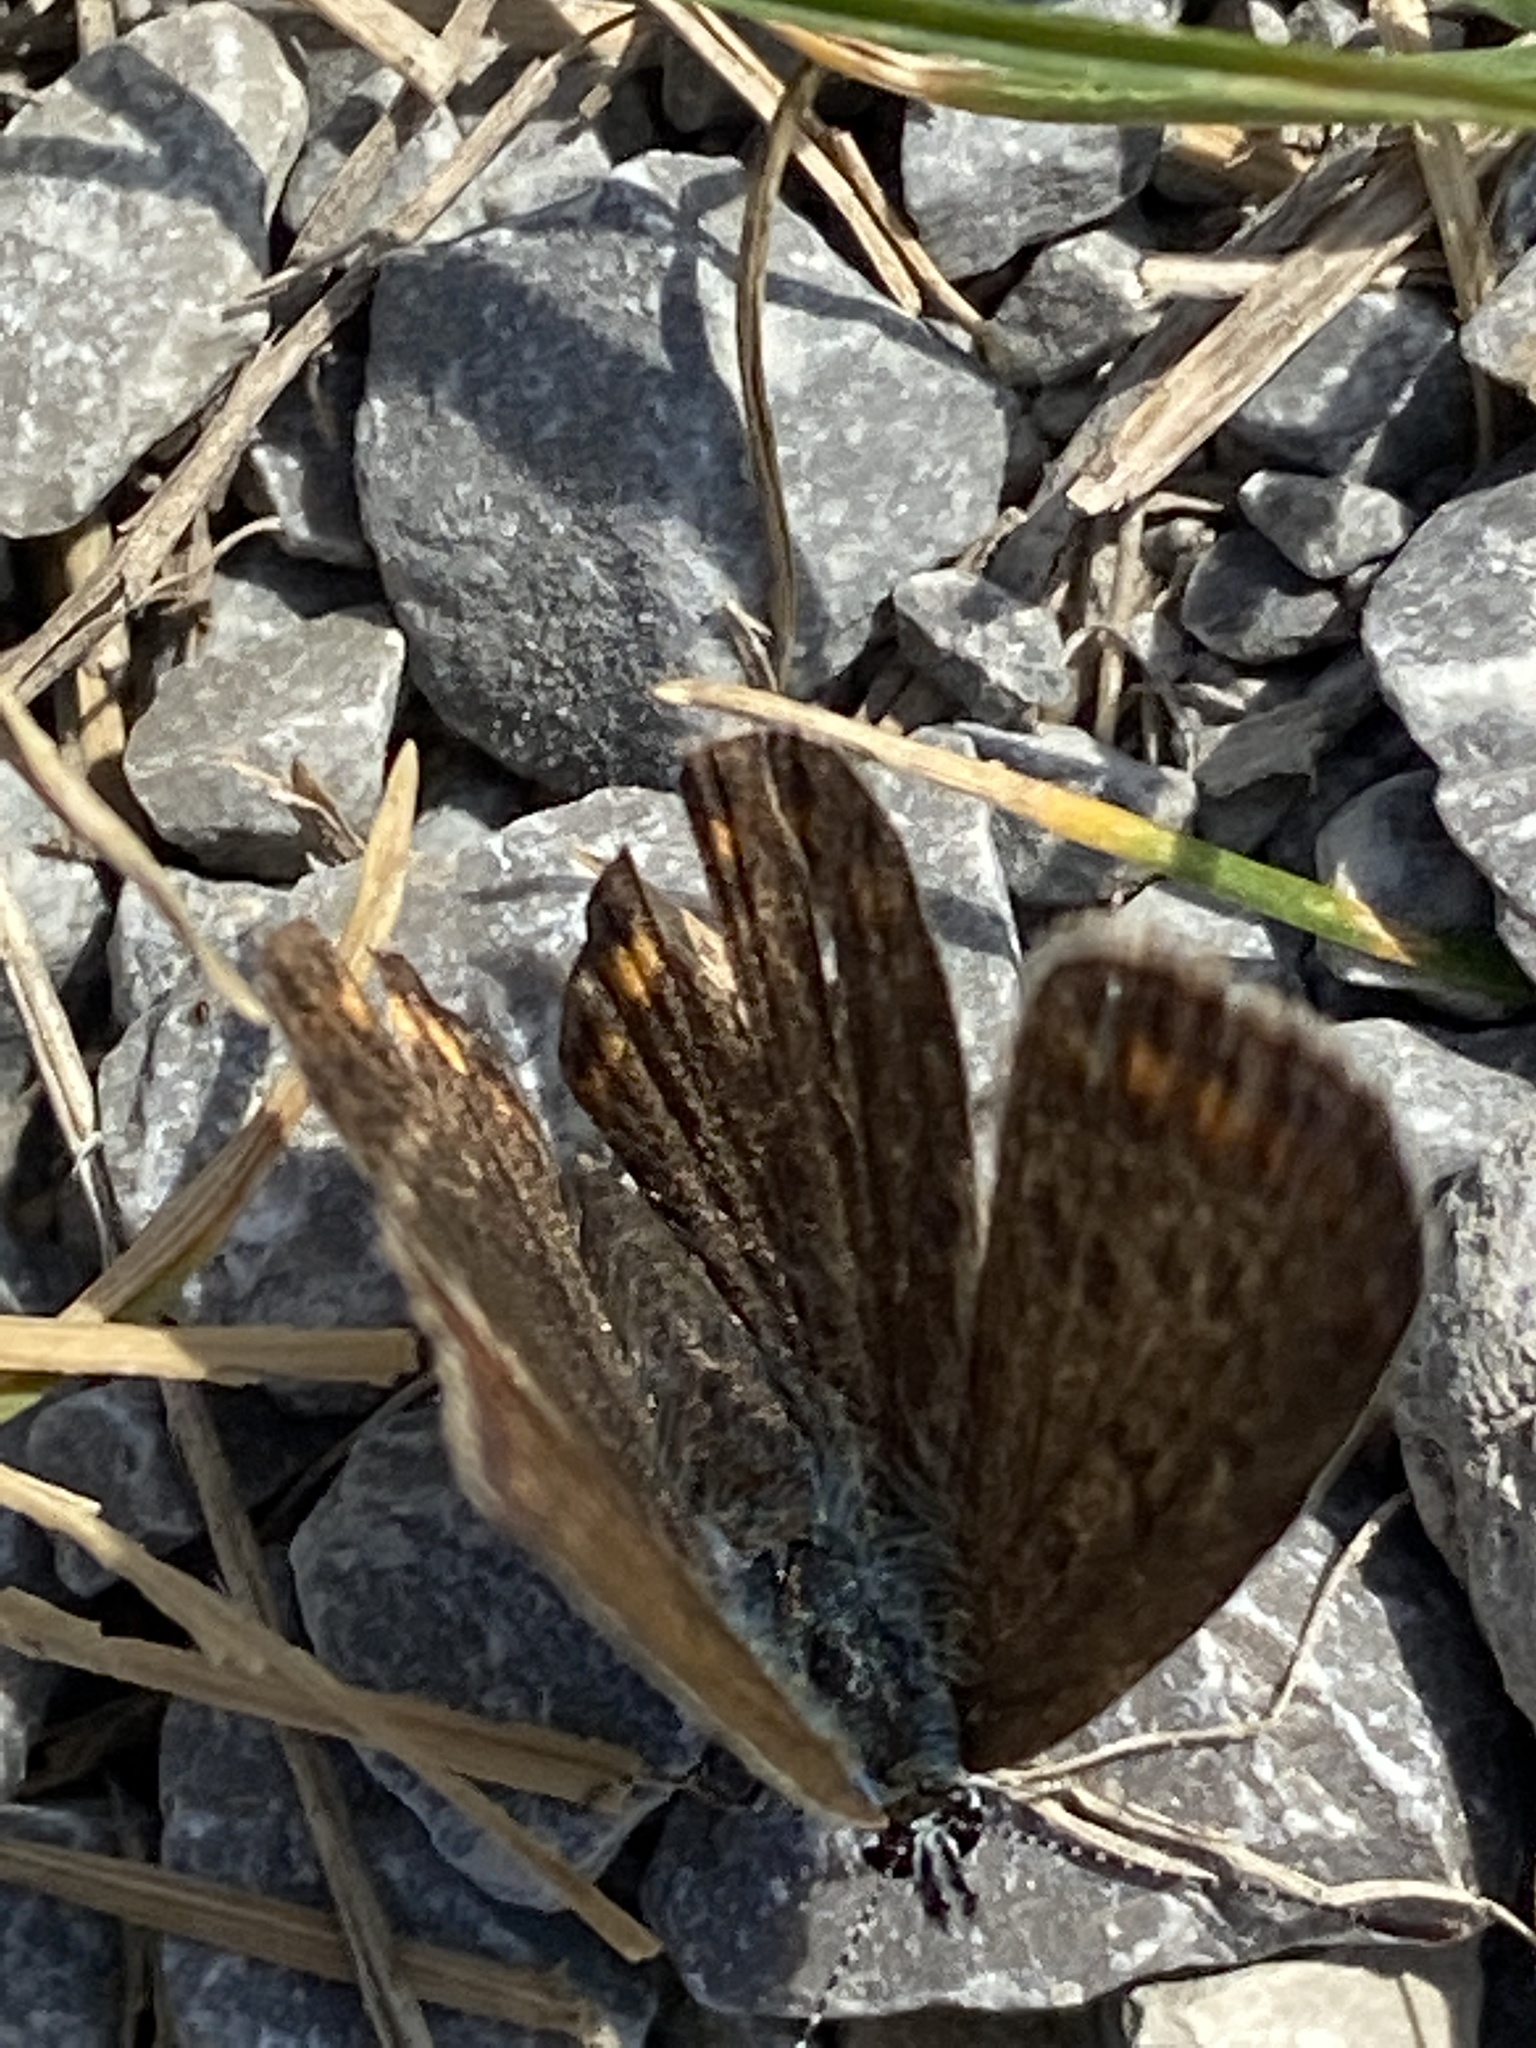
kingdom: Animalia
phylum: Arthropoda
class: Insecta
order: Lepidoptera
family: Lycaenidae
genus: Polyommatus
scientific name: Polyommatus icarus
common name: Common blue
